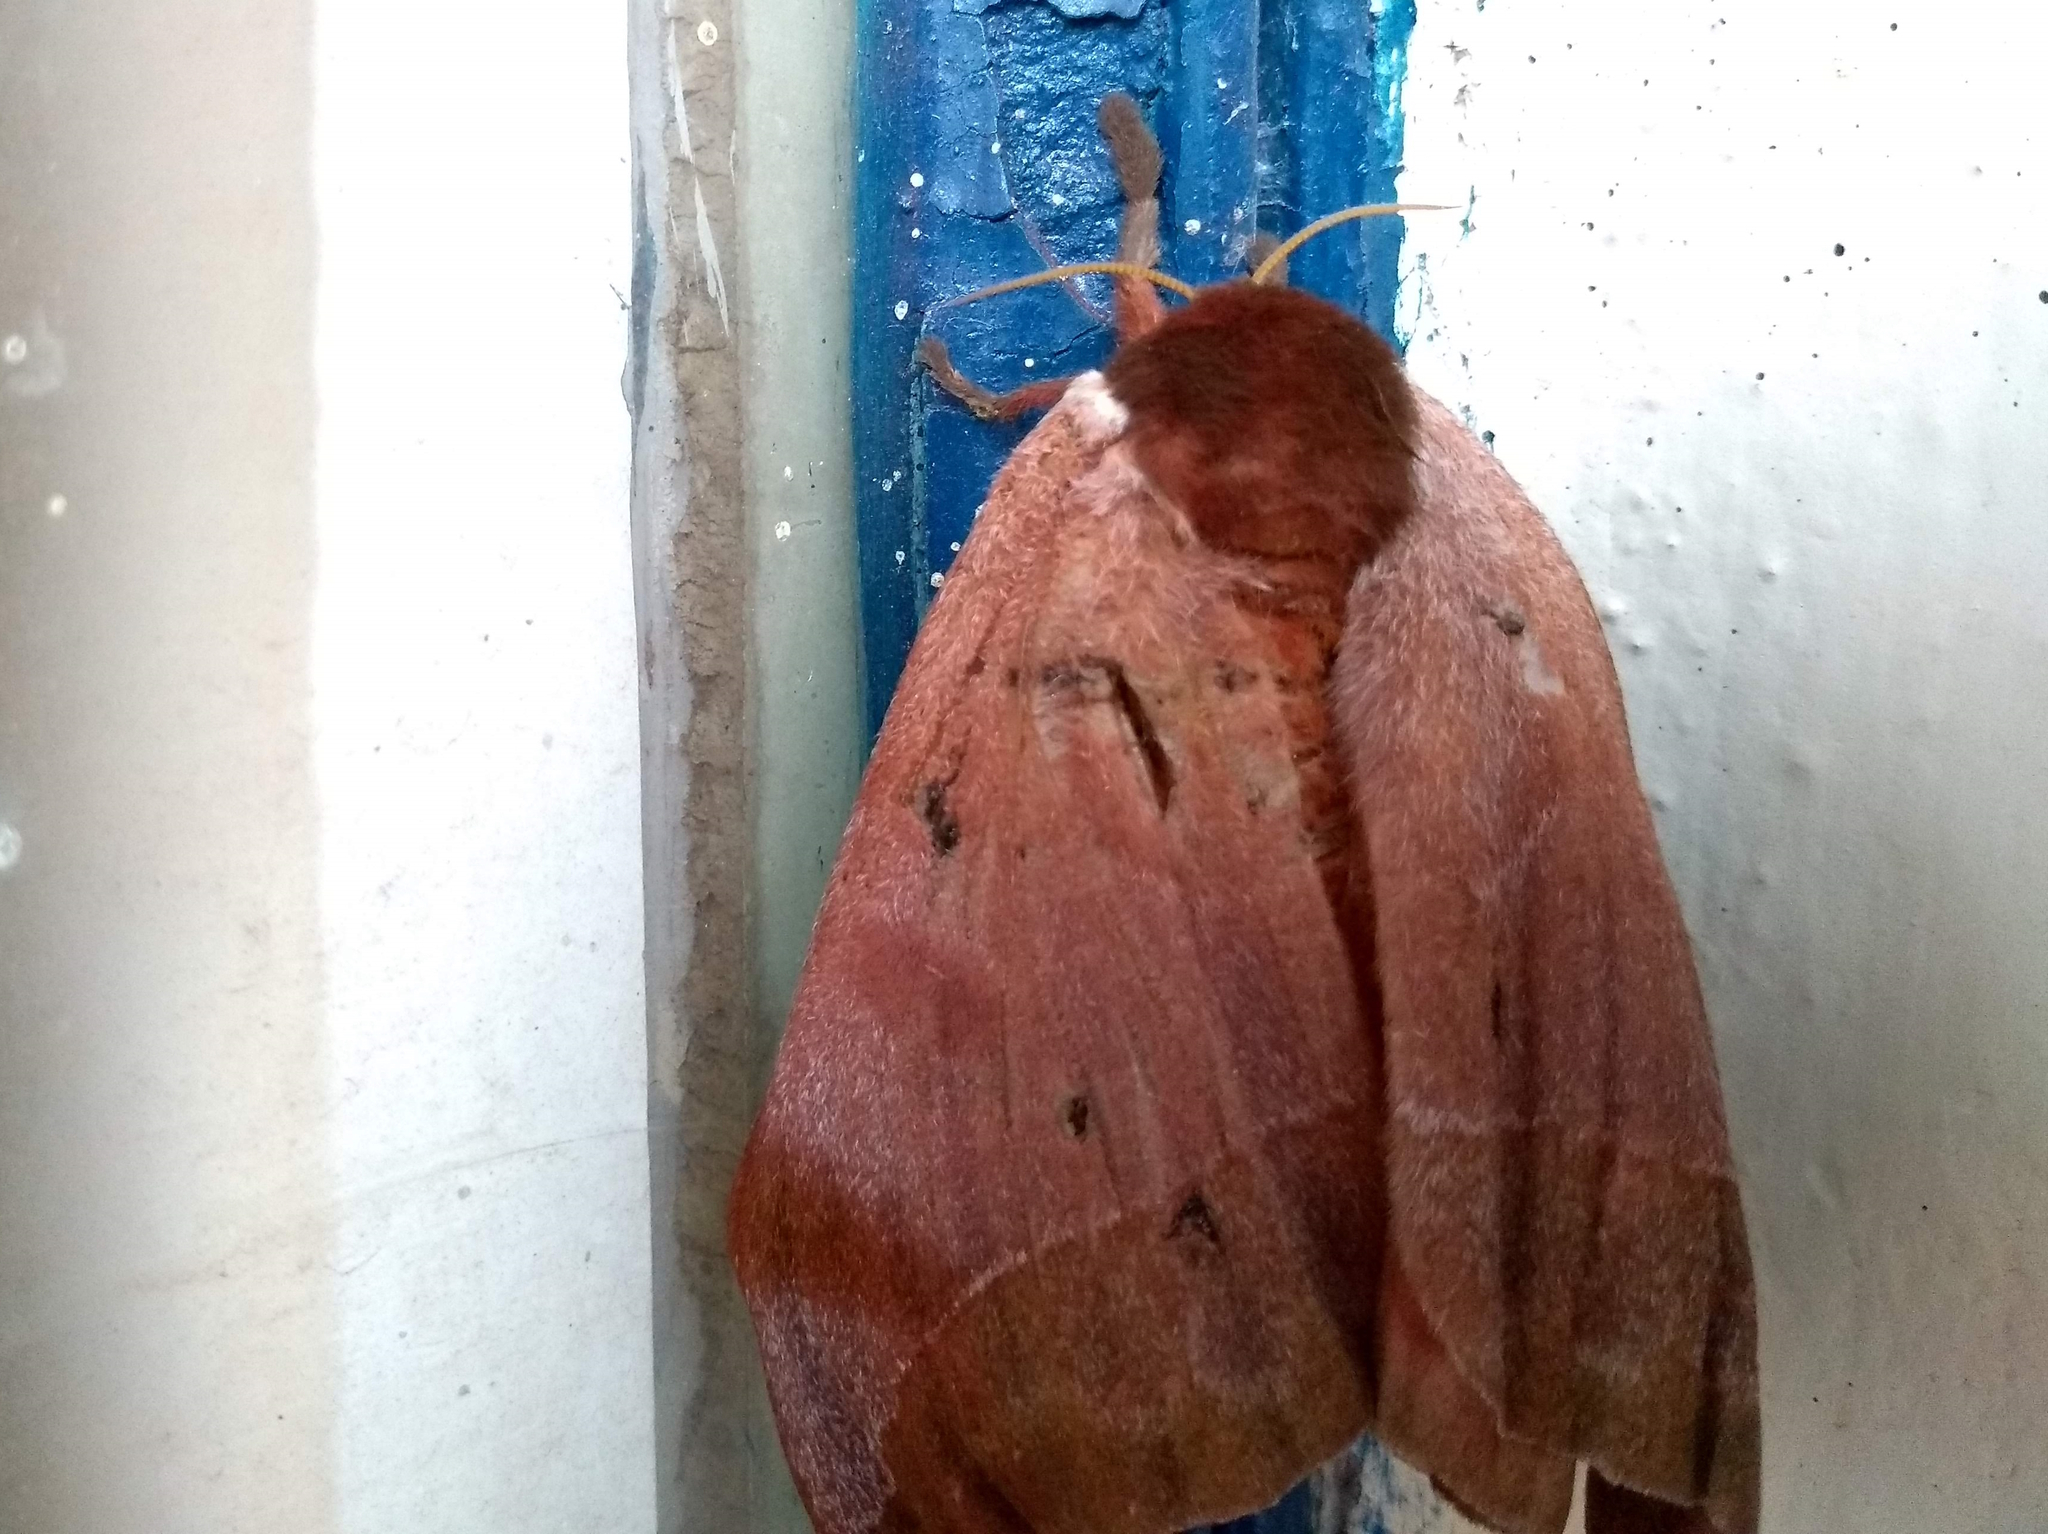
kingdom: Animalia
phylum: Arthropoda
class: Insecta
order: Lepidoptera
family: Saturniidae
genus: Automeris
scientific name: Automeris bilinea
